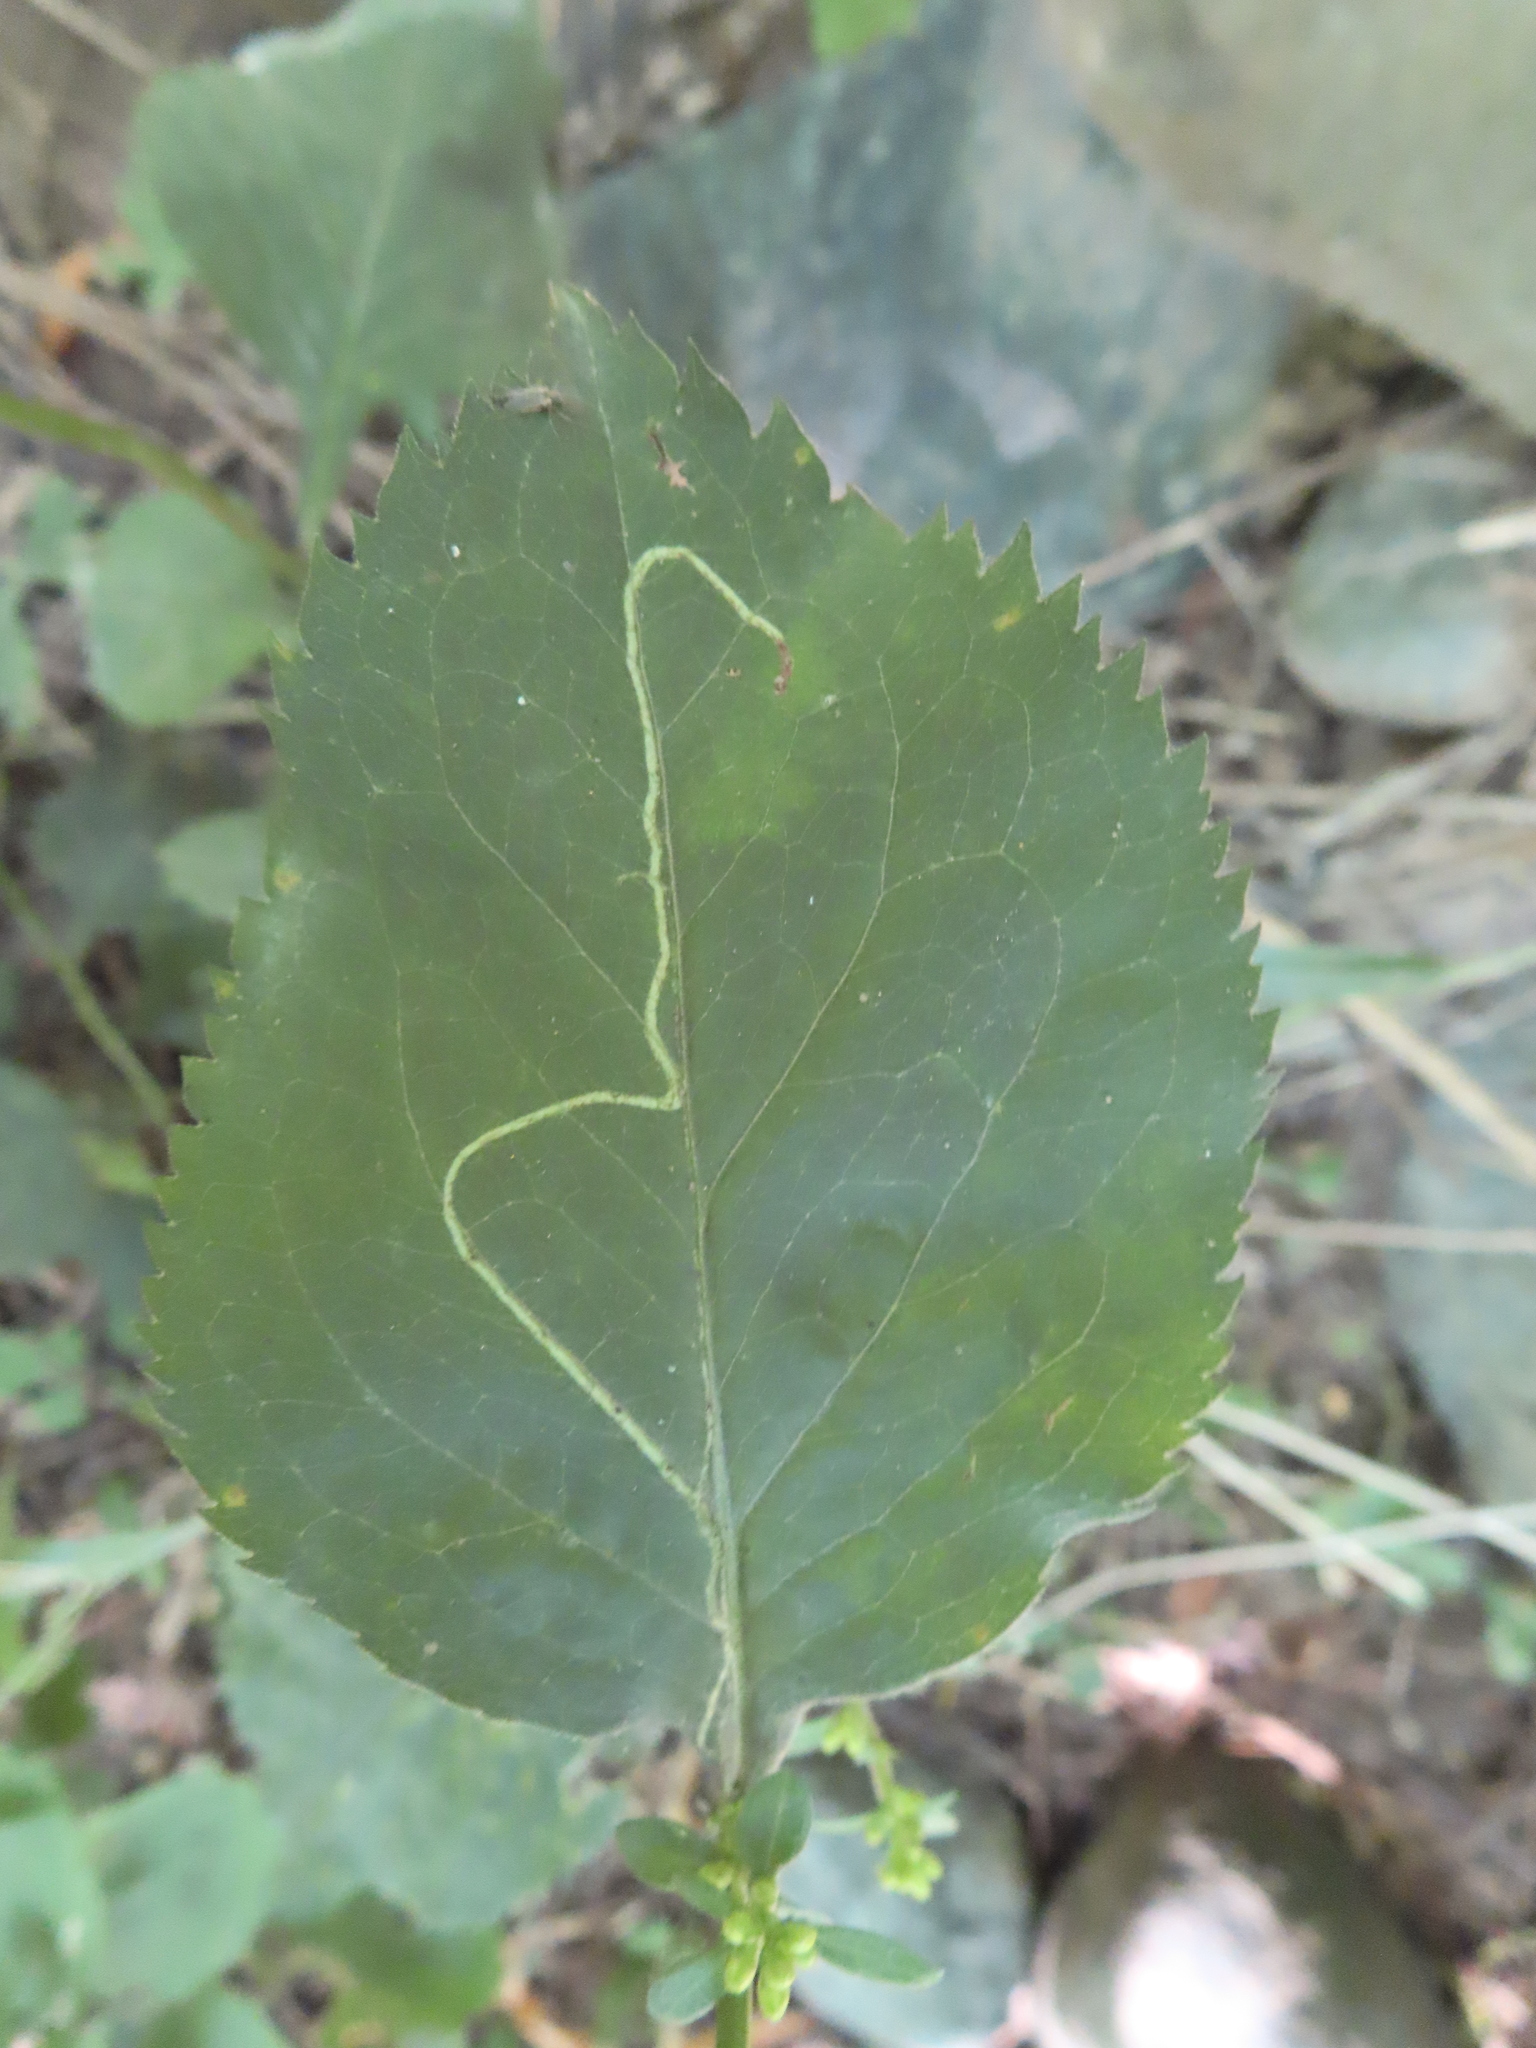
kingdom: Animalia
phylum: Arthropoda
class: Insecta
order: Diptera
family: Agromyzidae
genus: Ophiomyia
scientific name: Ophiomyia maura
